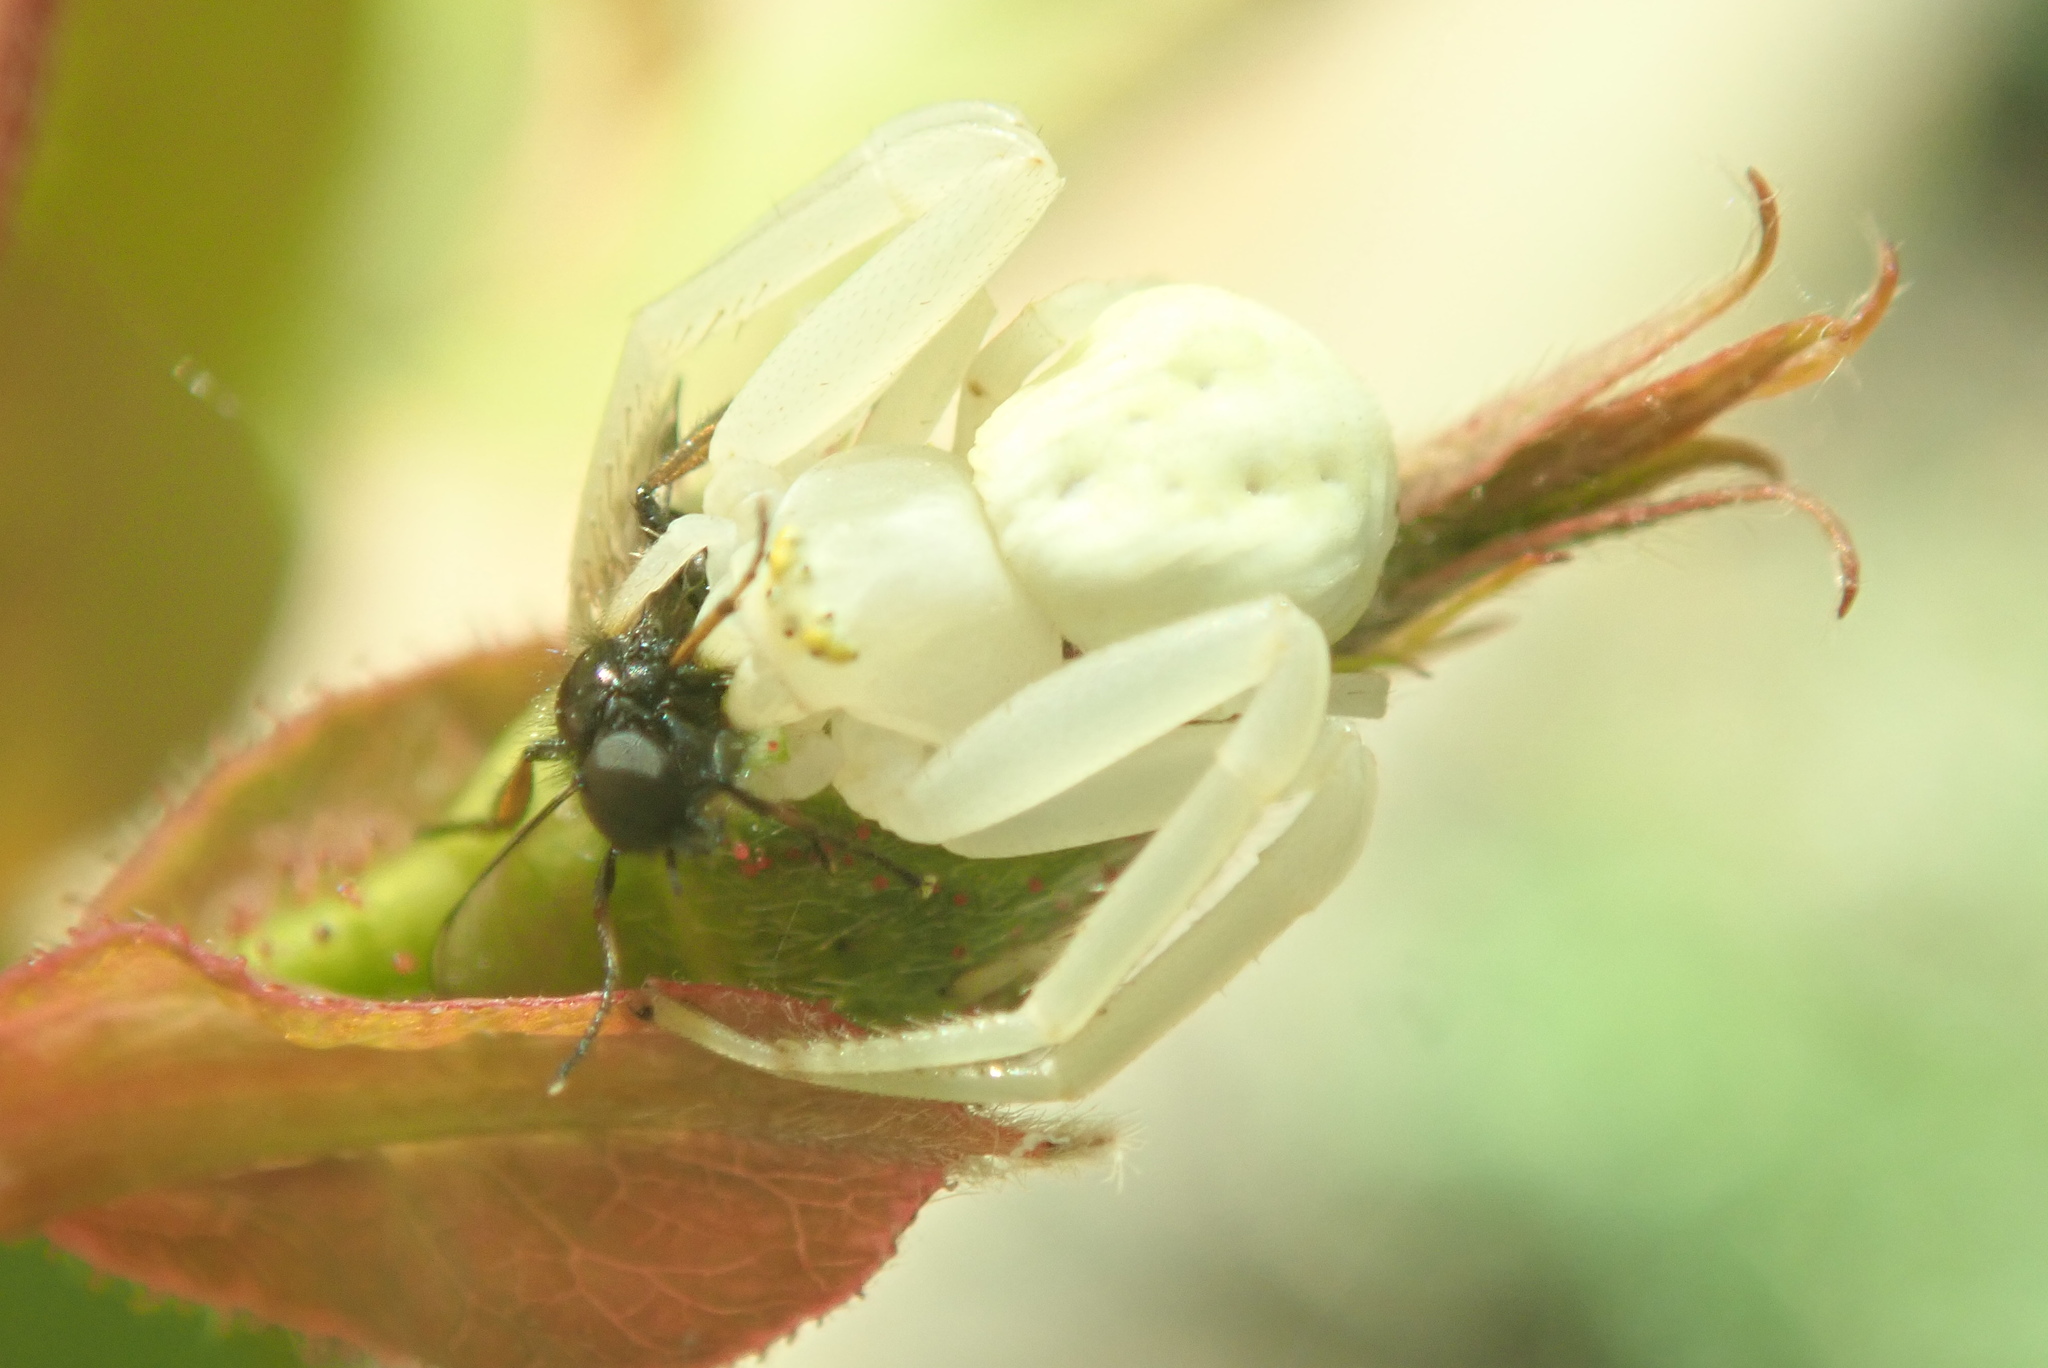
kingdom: Animalia
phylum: Arthropoda
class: Arachnida
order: Araneae
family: Thomisidae
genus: Misumena
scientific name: Misumena vatia
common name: Goldenrod crab spider
